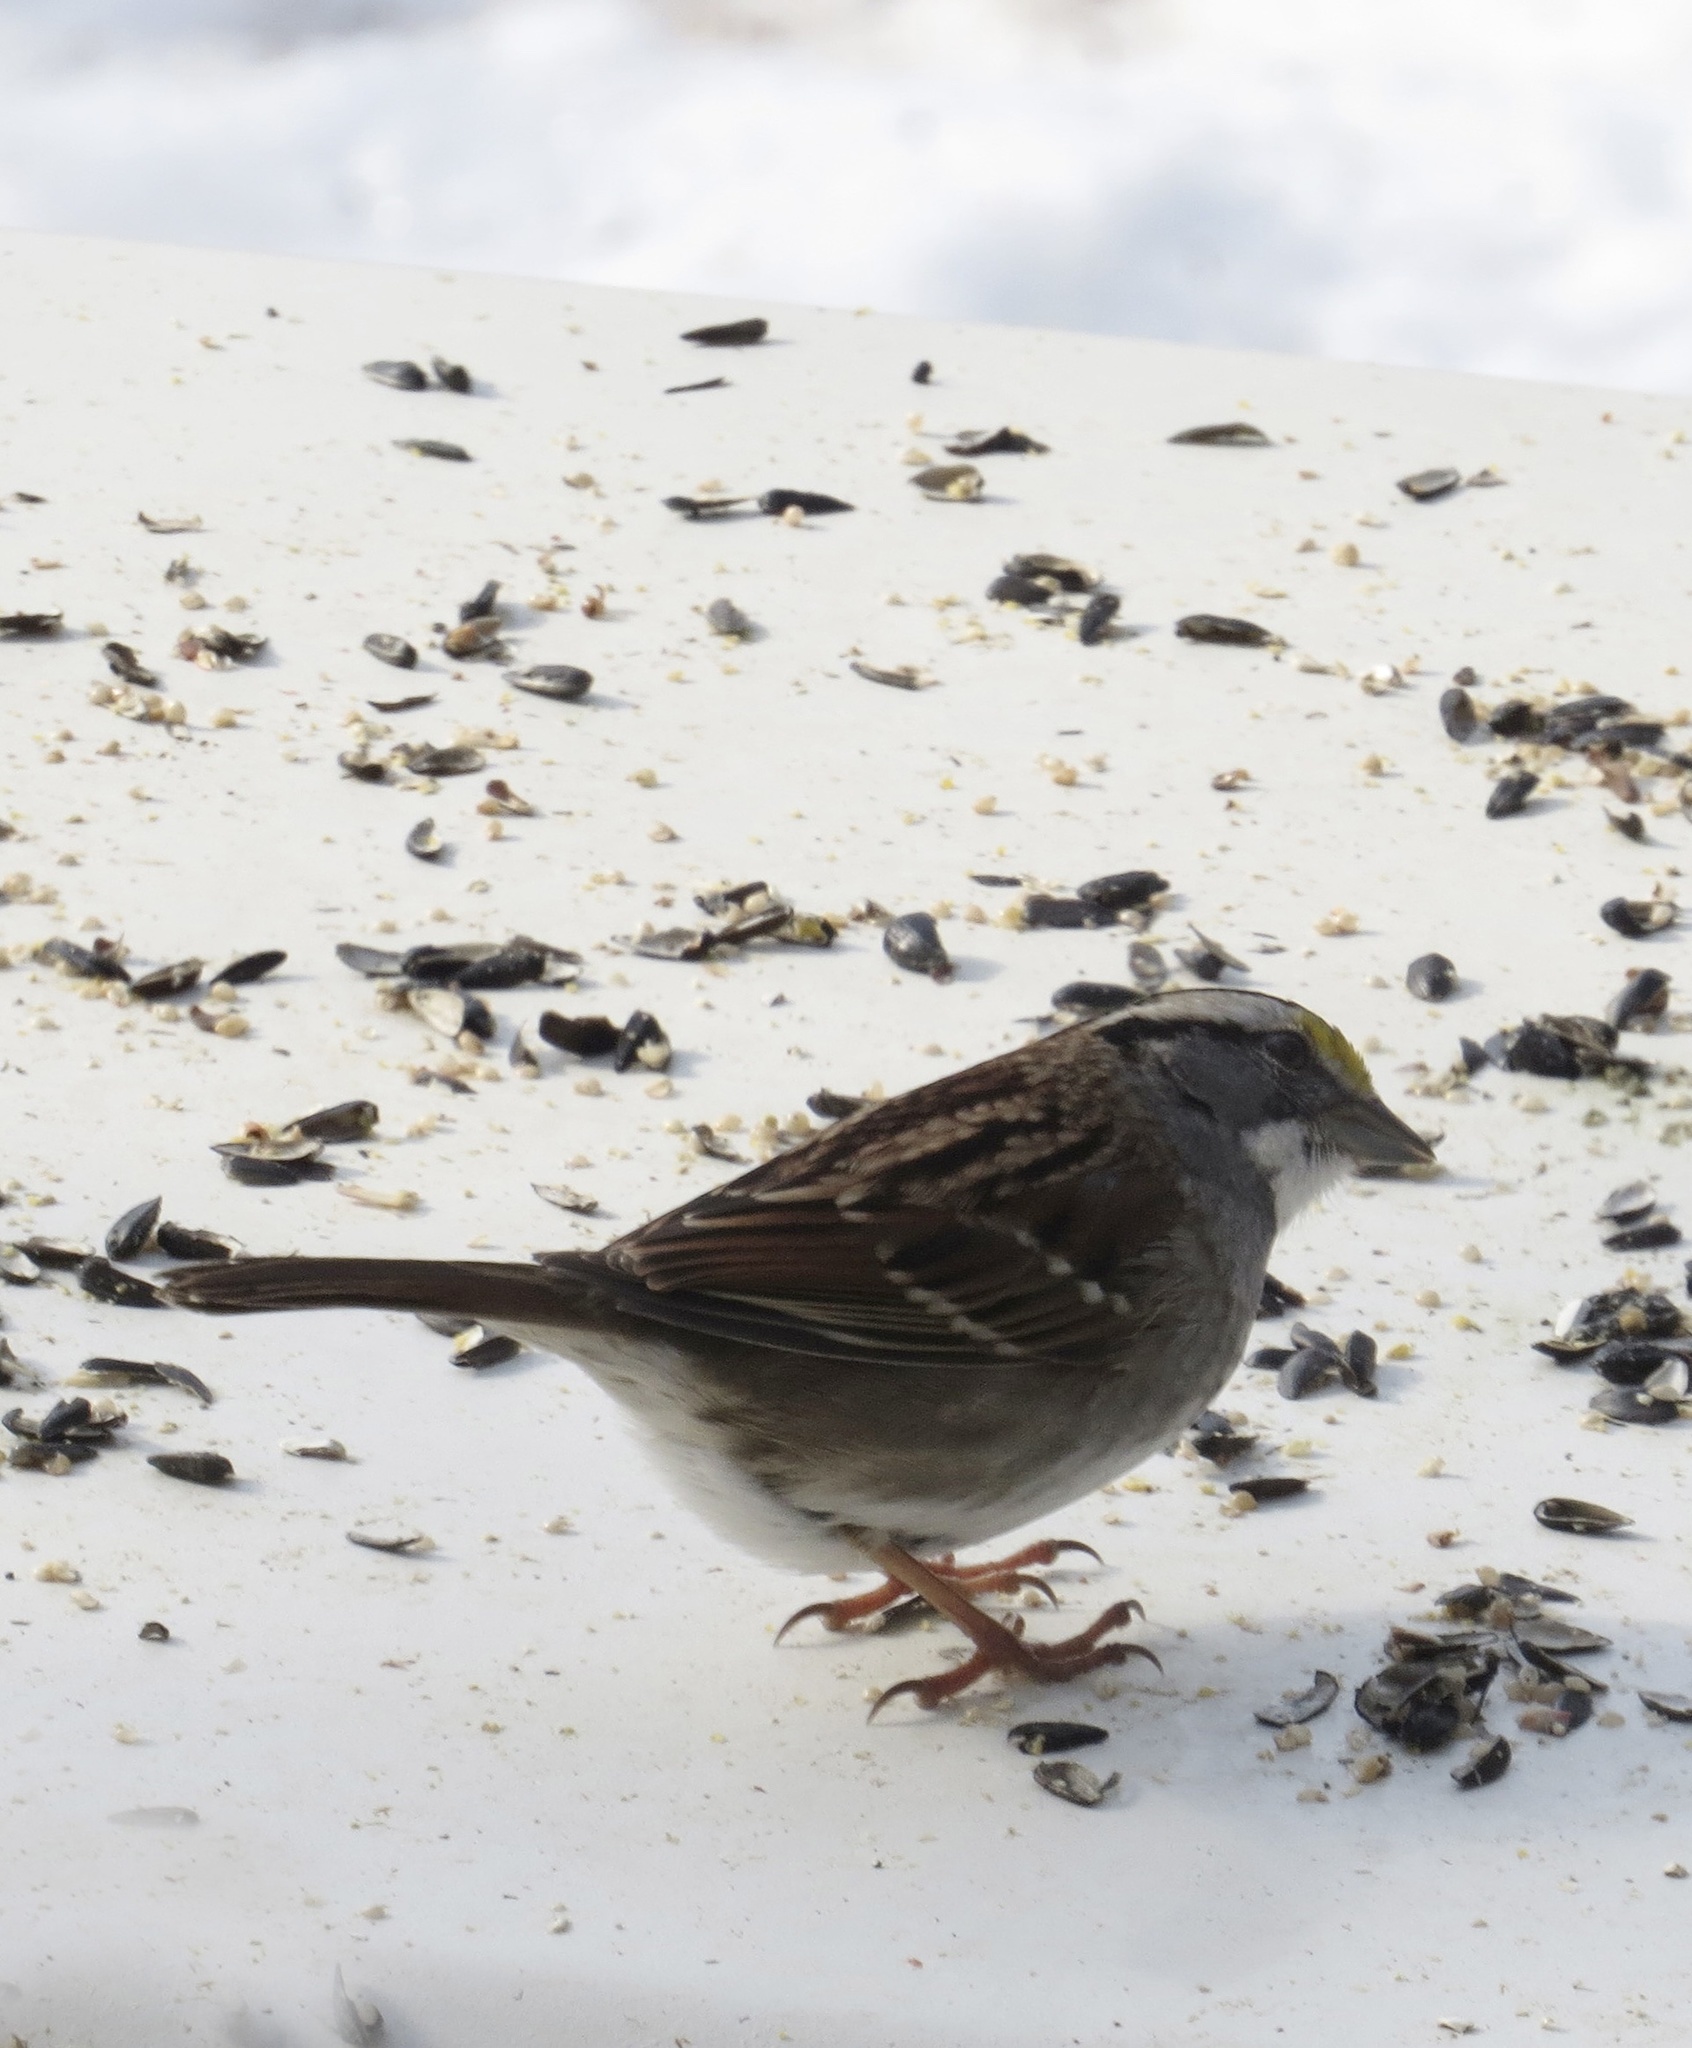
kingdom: Animalia
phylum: Chordata
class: Aves
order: Passeriformes
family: Passerellidae
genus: Zonotrichia
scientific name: Zonotrichia albicollis
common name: White-throated sparrow
